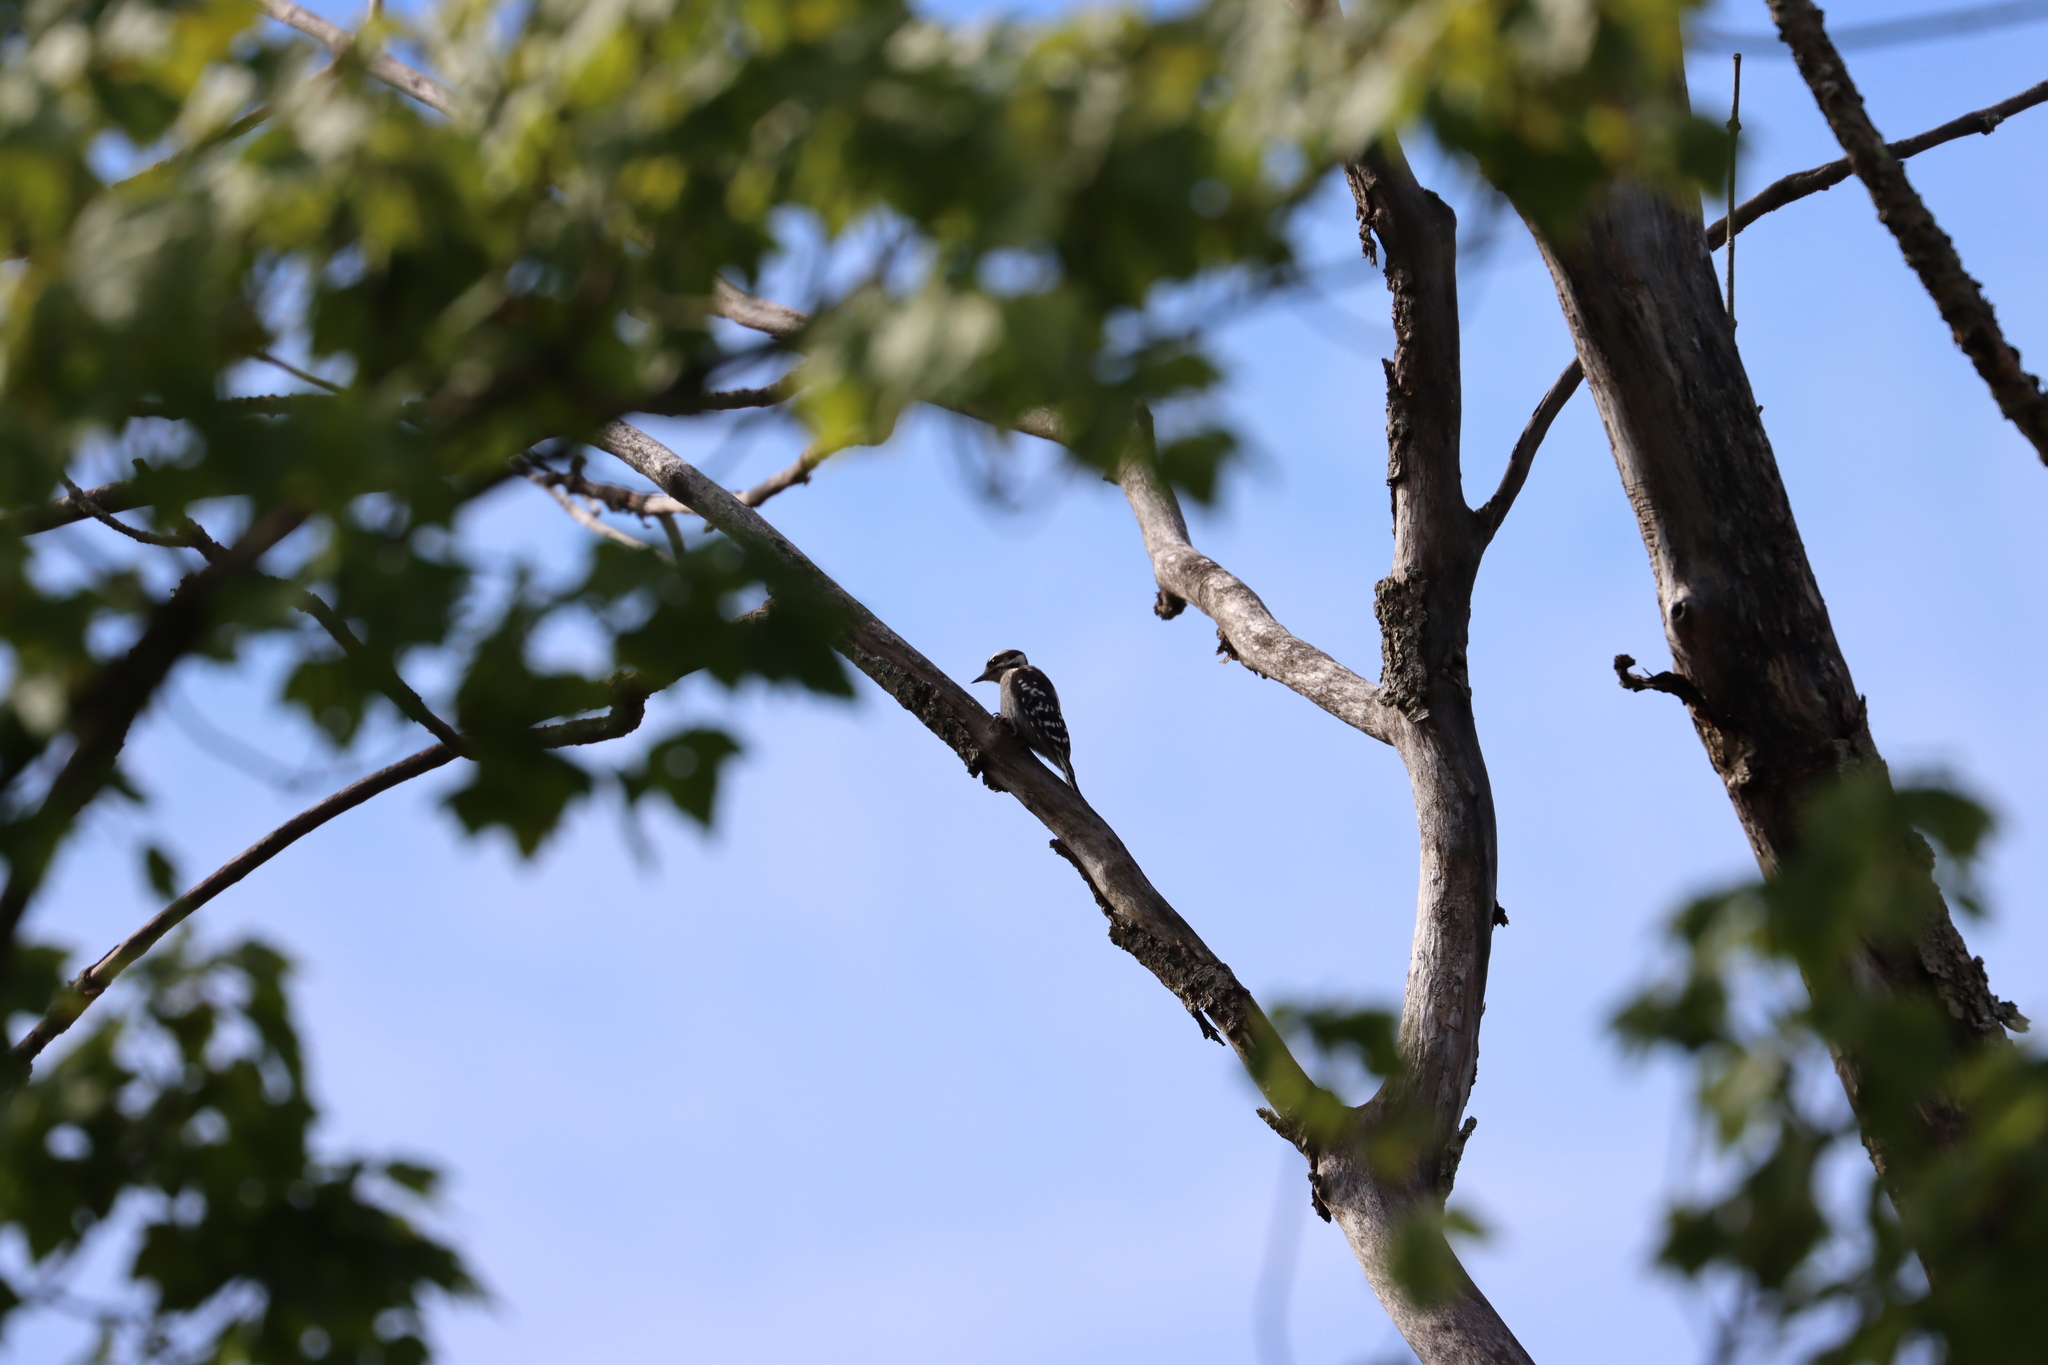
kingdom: Animalia
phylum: Chordata
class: Aves
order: Piciformes
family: Picidae
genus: Dryobates
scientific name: Dryobates pubescens
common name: Downy woodpecker
